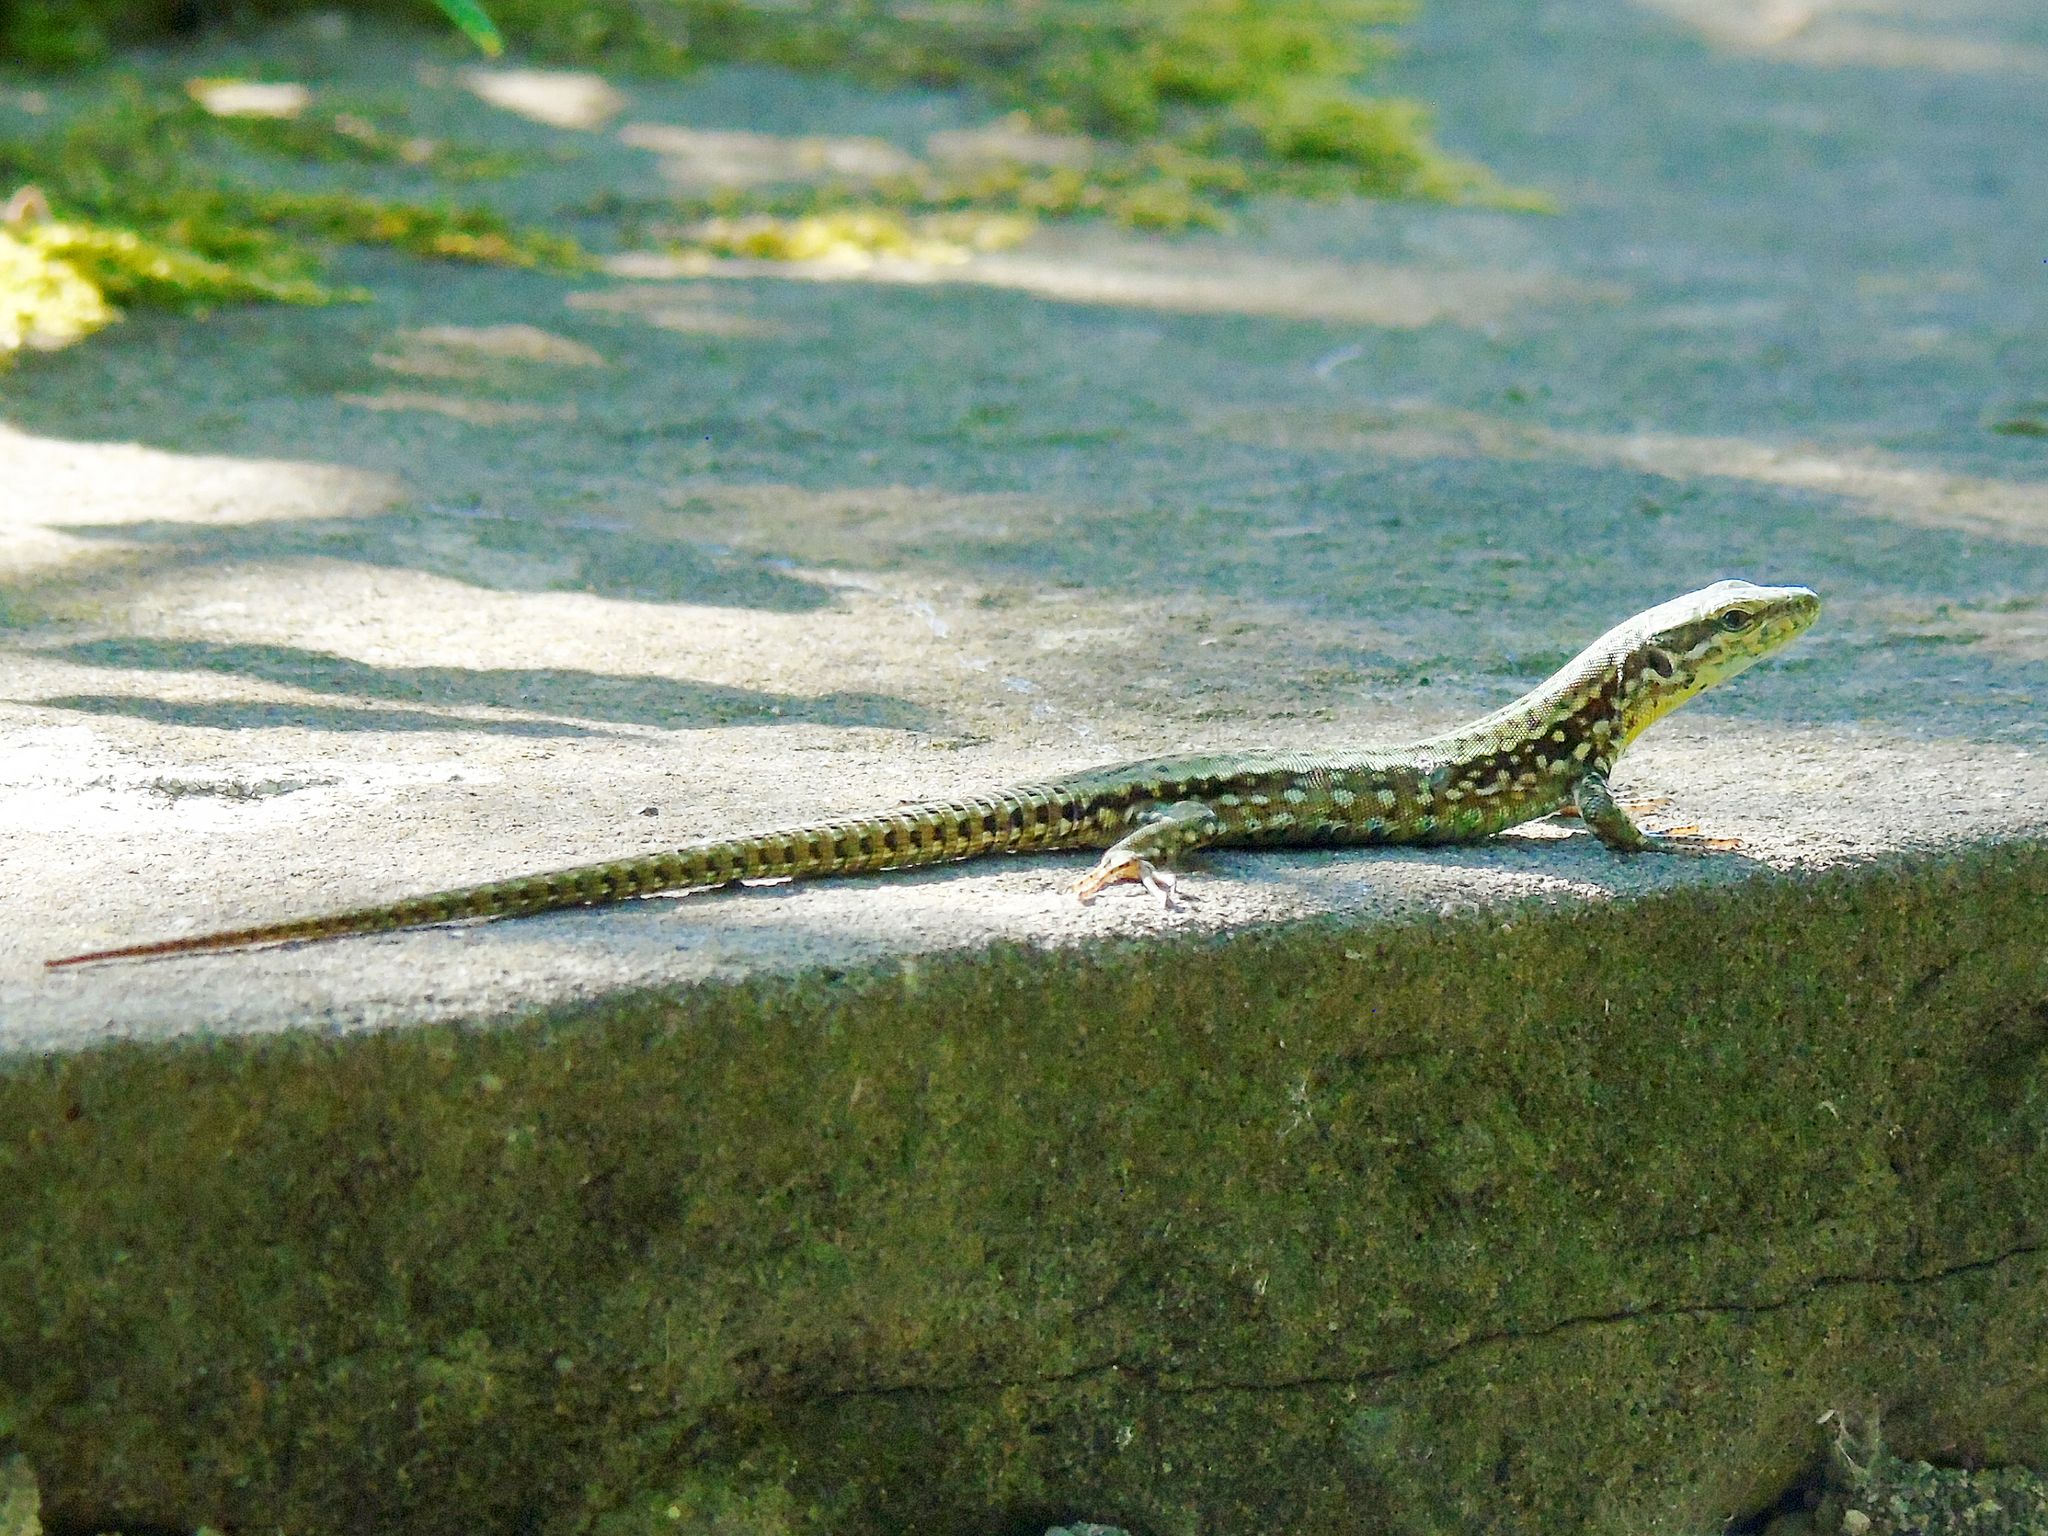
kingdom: Animalia
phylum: Chordata
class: Squamata
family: Lacertidae
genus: Podarcis
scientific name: Podarcis muralis
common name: Common wall lizard
